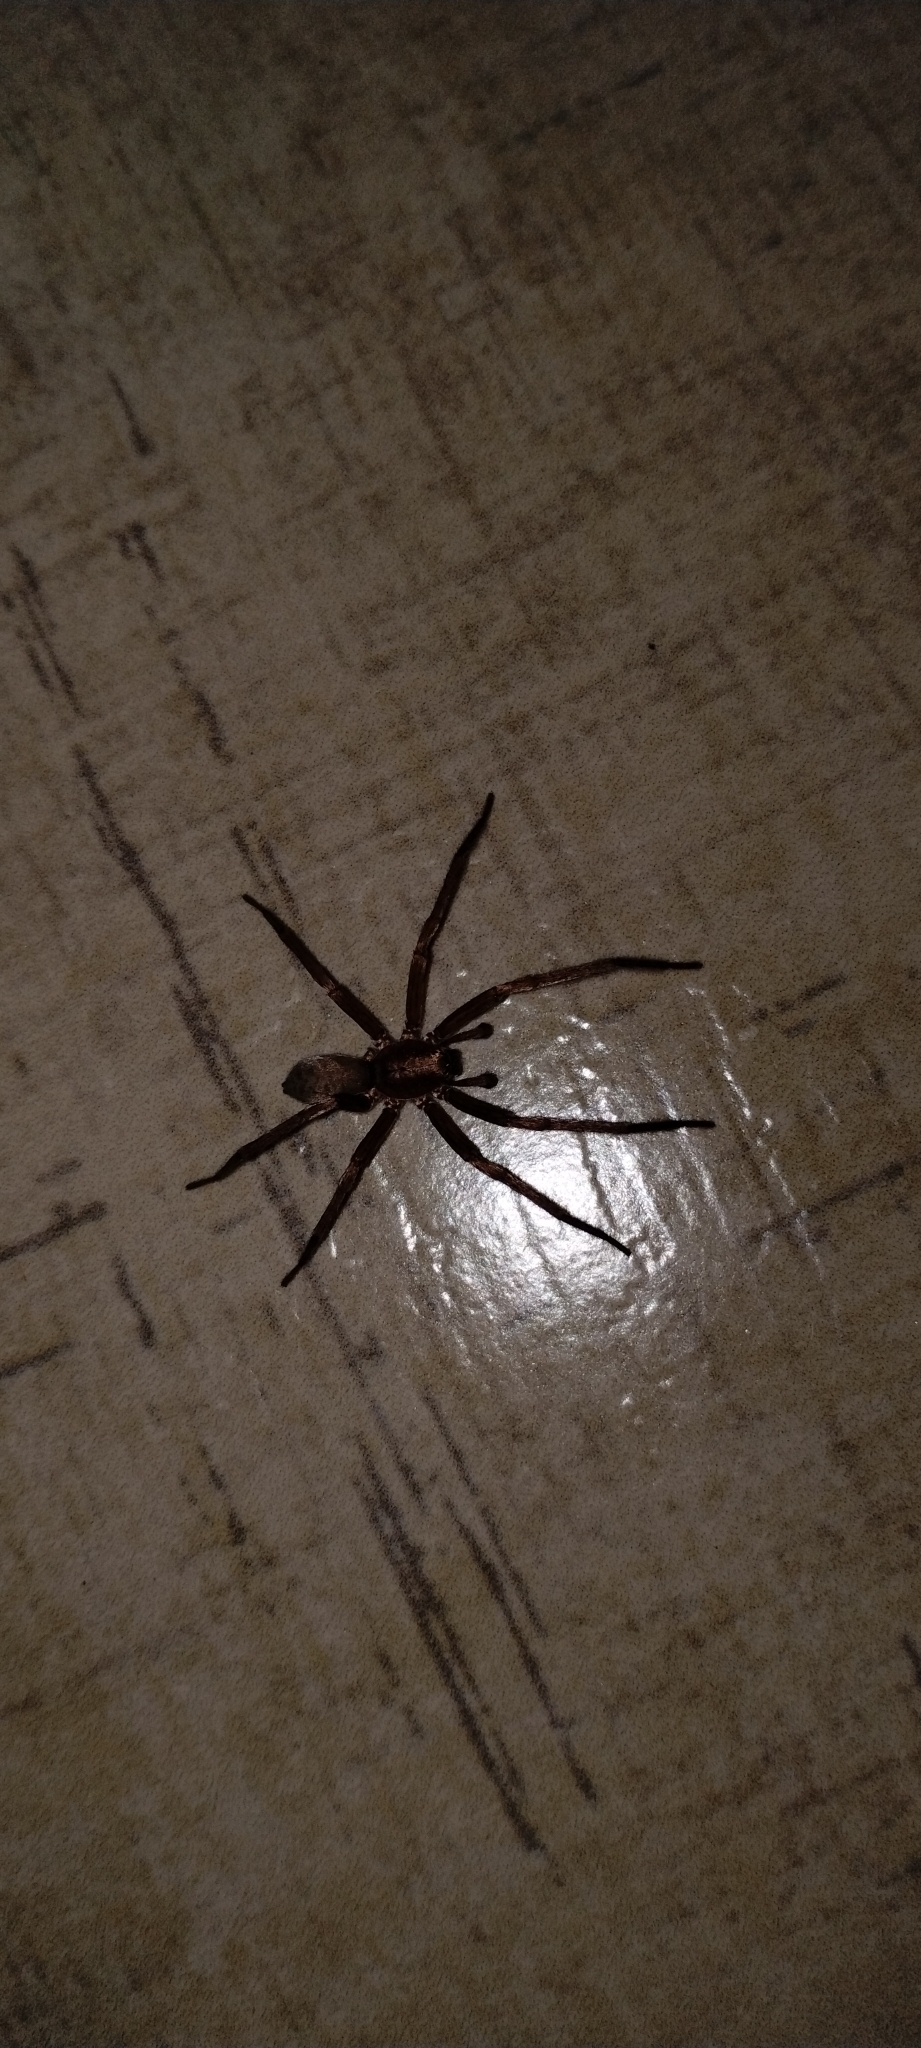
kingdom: Animalia
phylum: Arthropoda
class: Arachnida
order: Araneae
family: Ctenidae
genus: Asthenoctenus
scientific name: Asthenoctenus borellii
